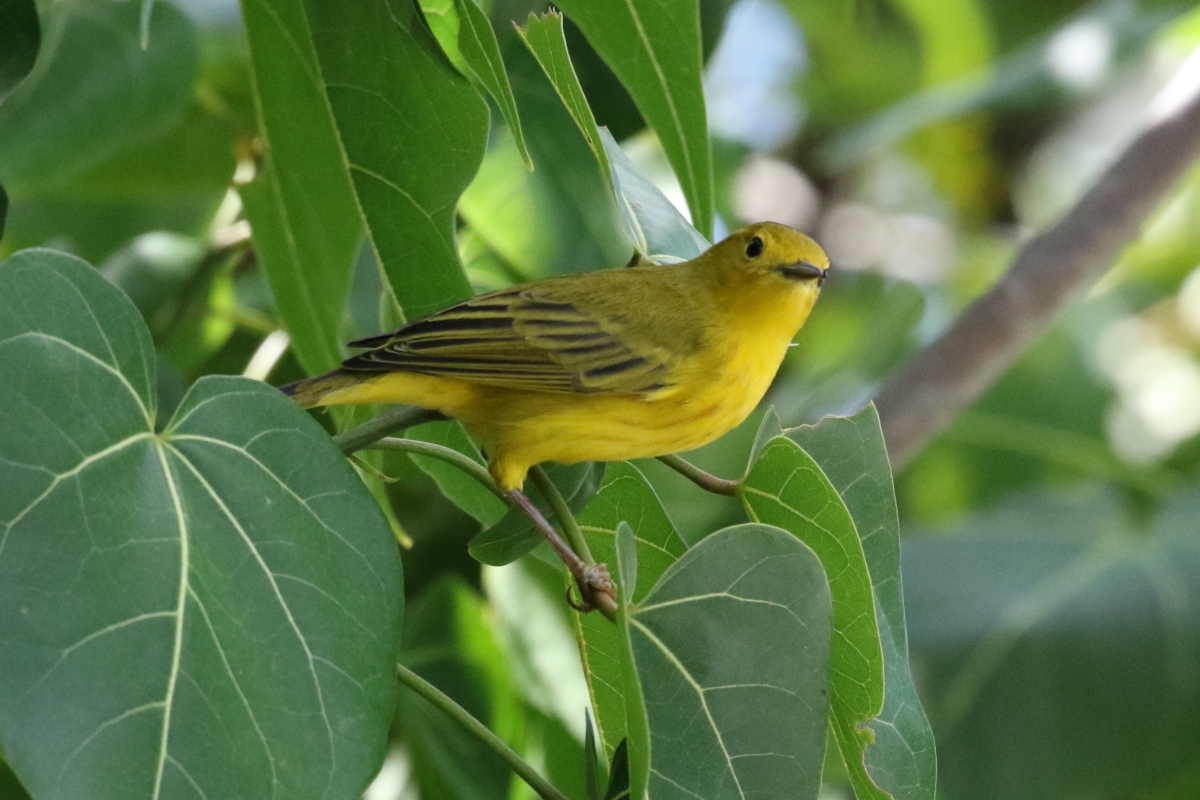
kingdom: Animalia
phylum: Chordata
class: Aves
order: Passeriformes
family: Parulidae
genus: Setophaga
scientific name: Setophaga petechia
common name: Yellow warbler
